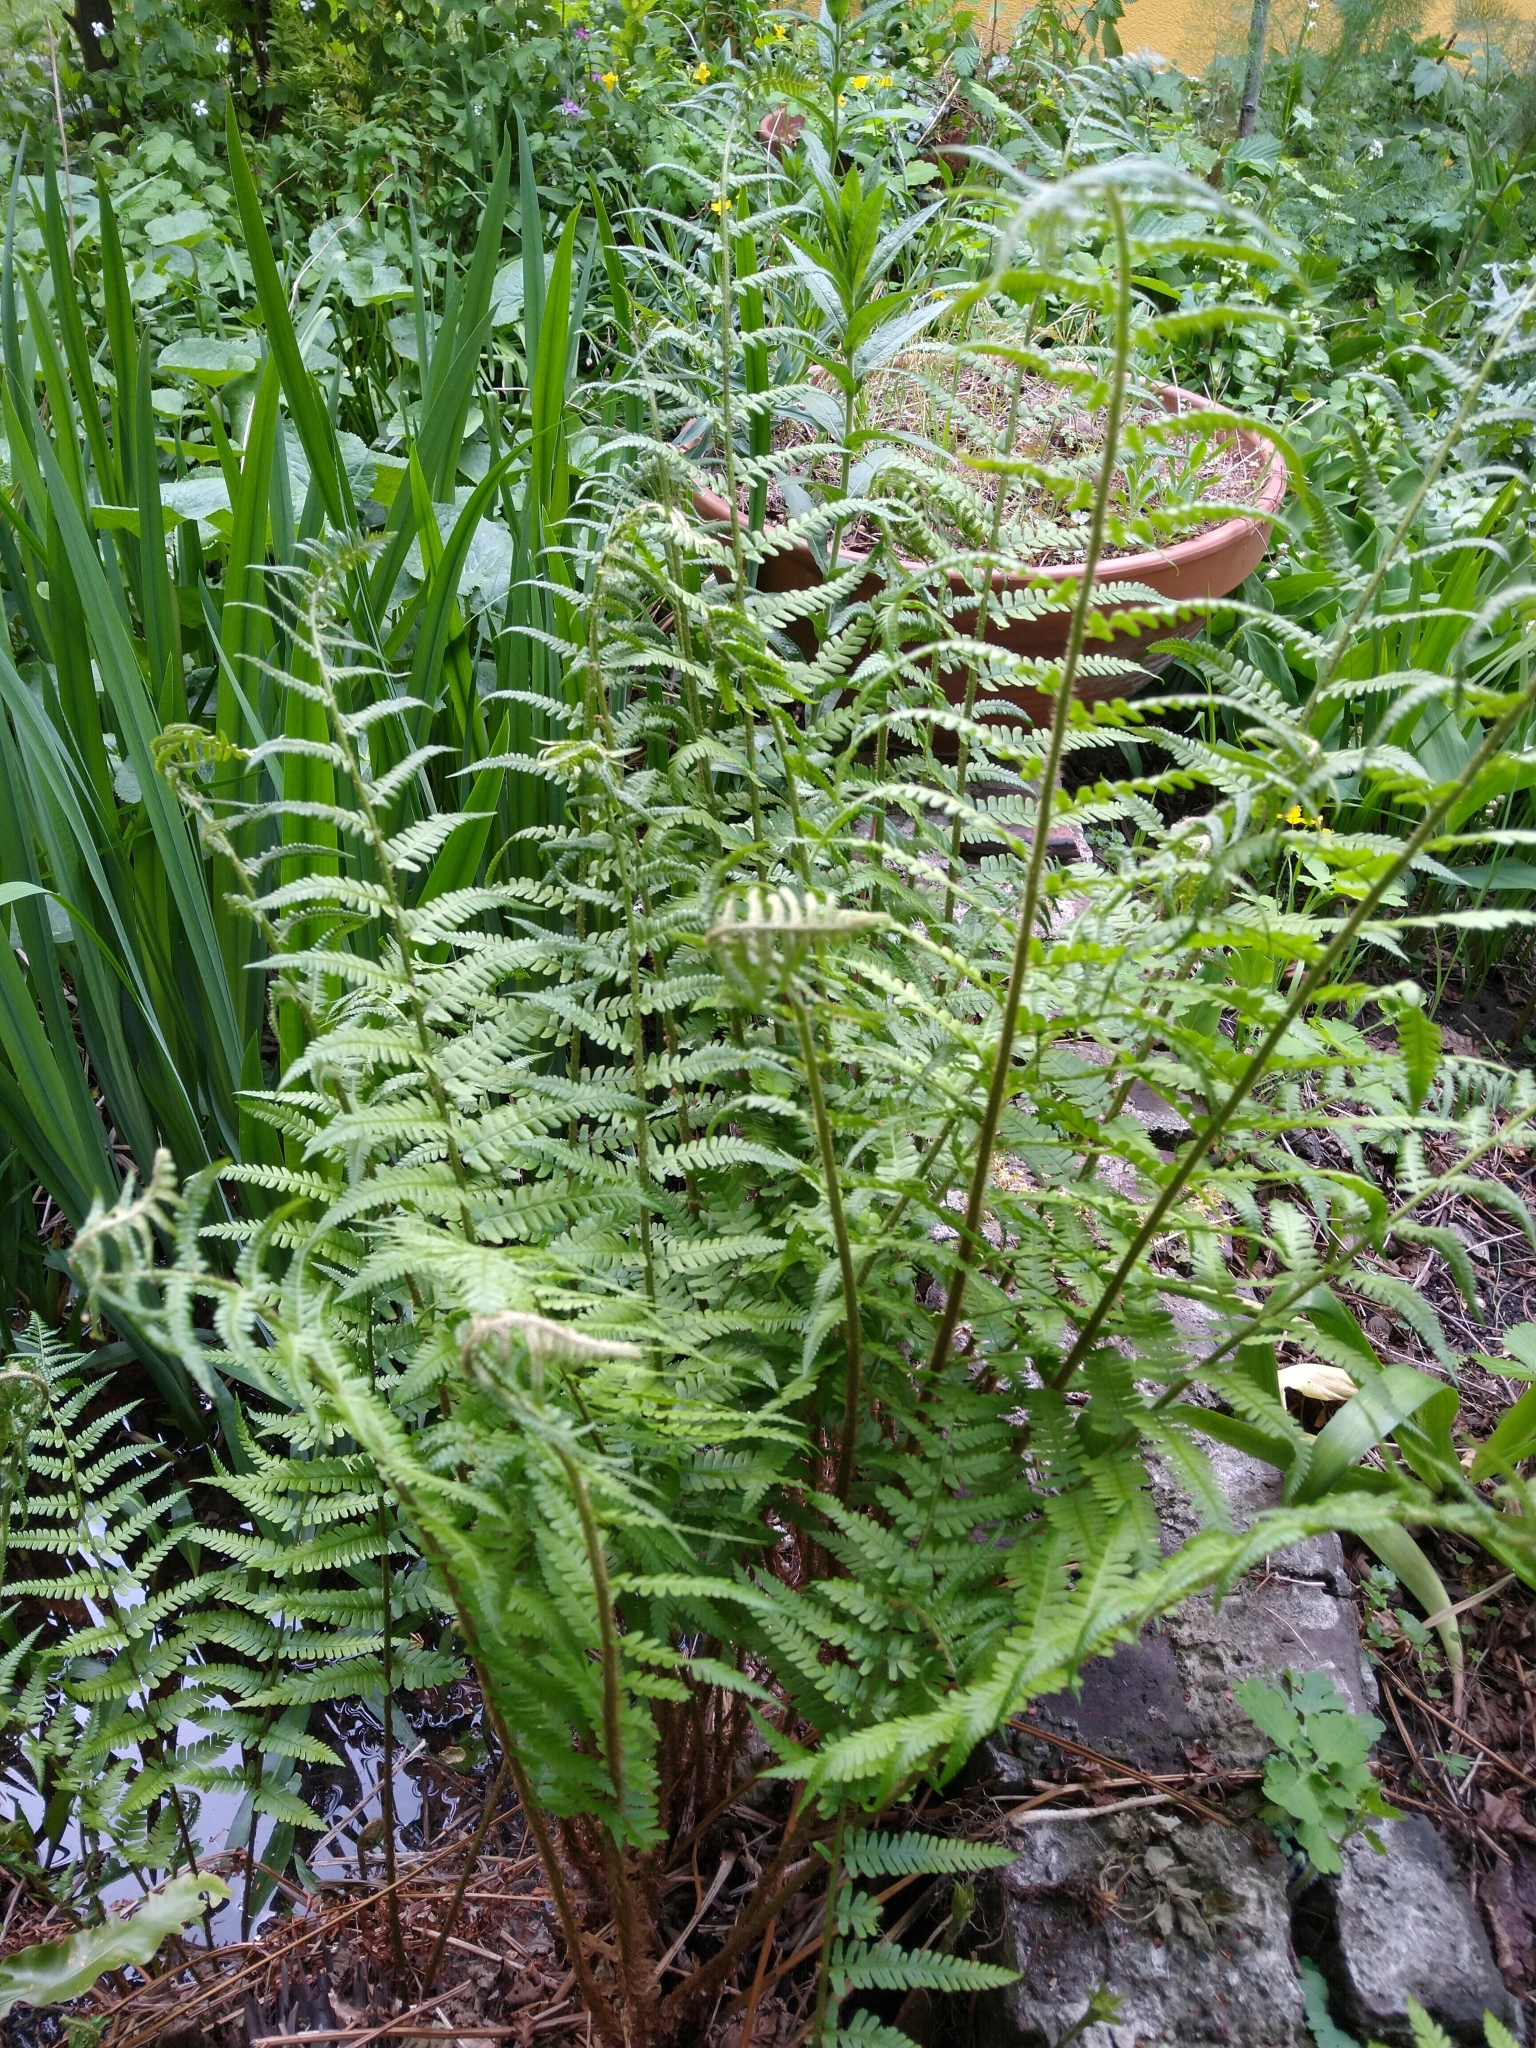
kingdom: Plantae
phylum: Tracheophyta
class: Polypodiopsida
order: Polypodiales
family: Dryopteridaceae
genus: Dryopteris
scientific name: Dryopteris filix-mas
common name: Male fern
